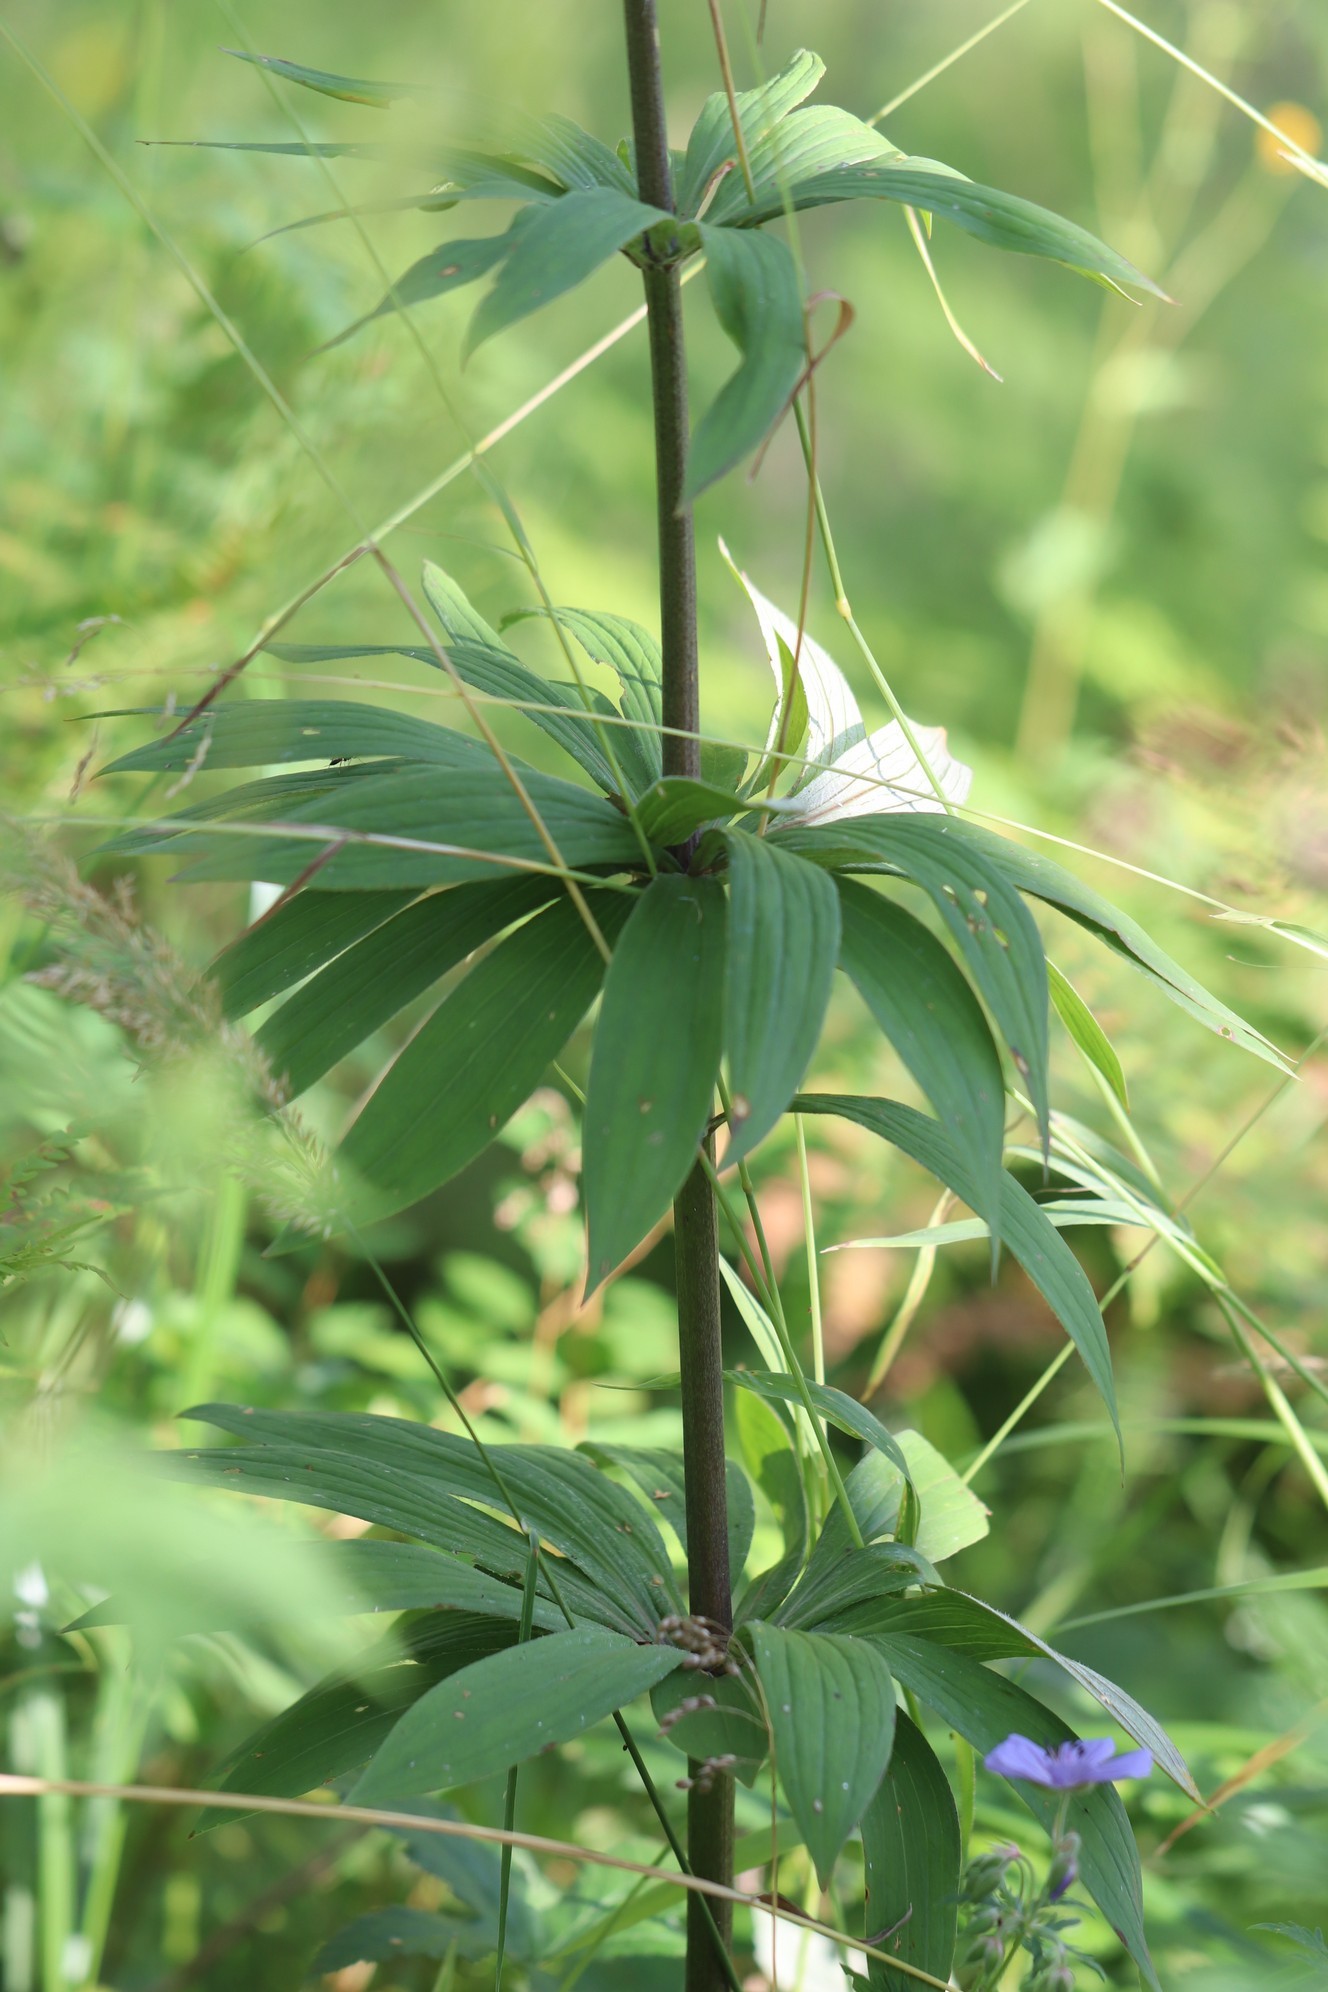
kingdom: Plantae
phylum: Tracheophyta
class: Liliopsida
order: Liliales
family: Liliaceae
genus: Lilium
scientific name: Lilium martagon
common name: Martagon lily
